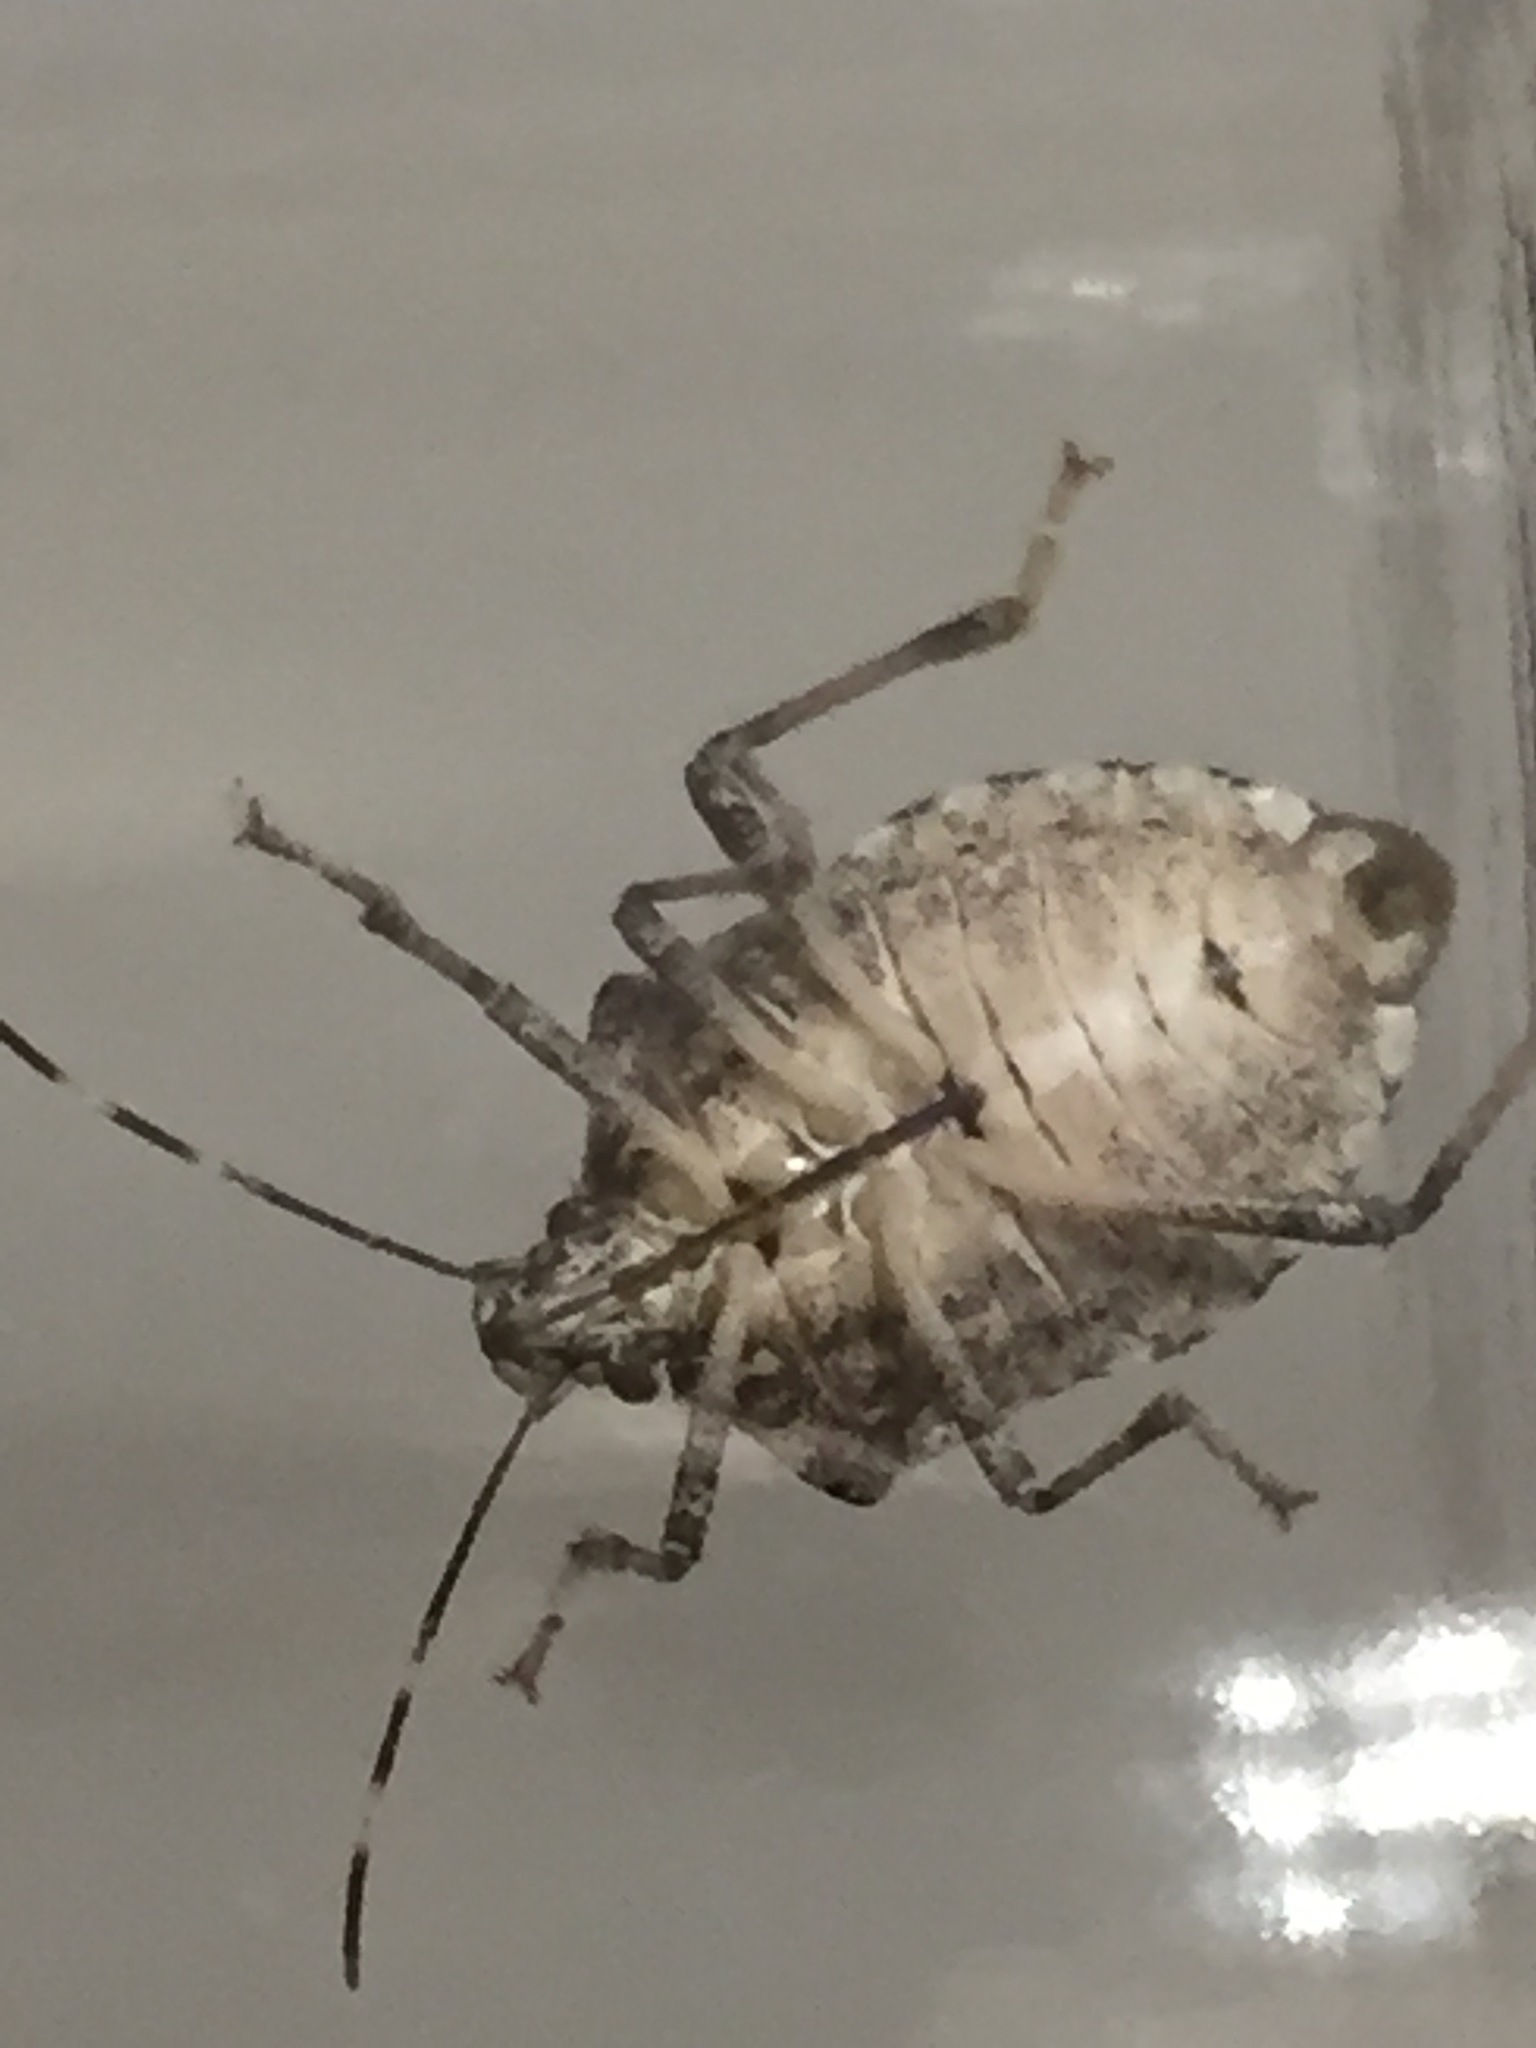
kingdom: Animalia
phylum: Arthropoda
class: Insecta
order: Hemiptera
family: Pentatomidae
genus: Halyomorpha
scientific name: Halyomorpha halys
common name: Brown marmorated stink bug
